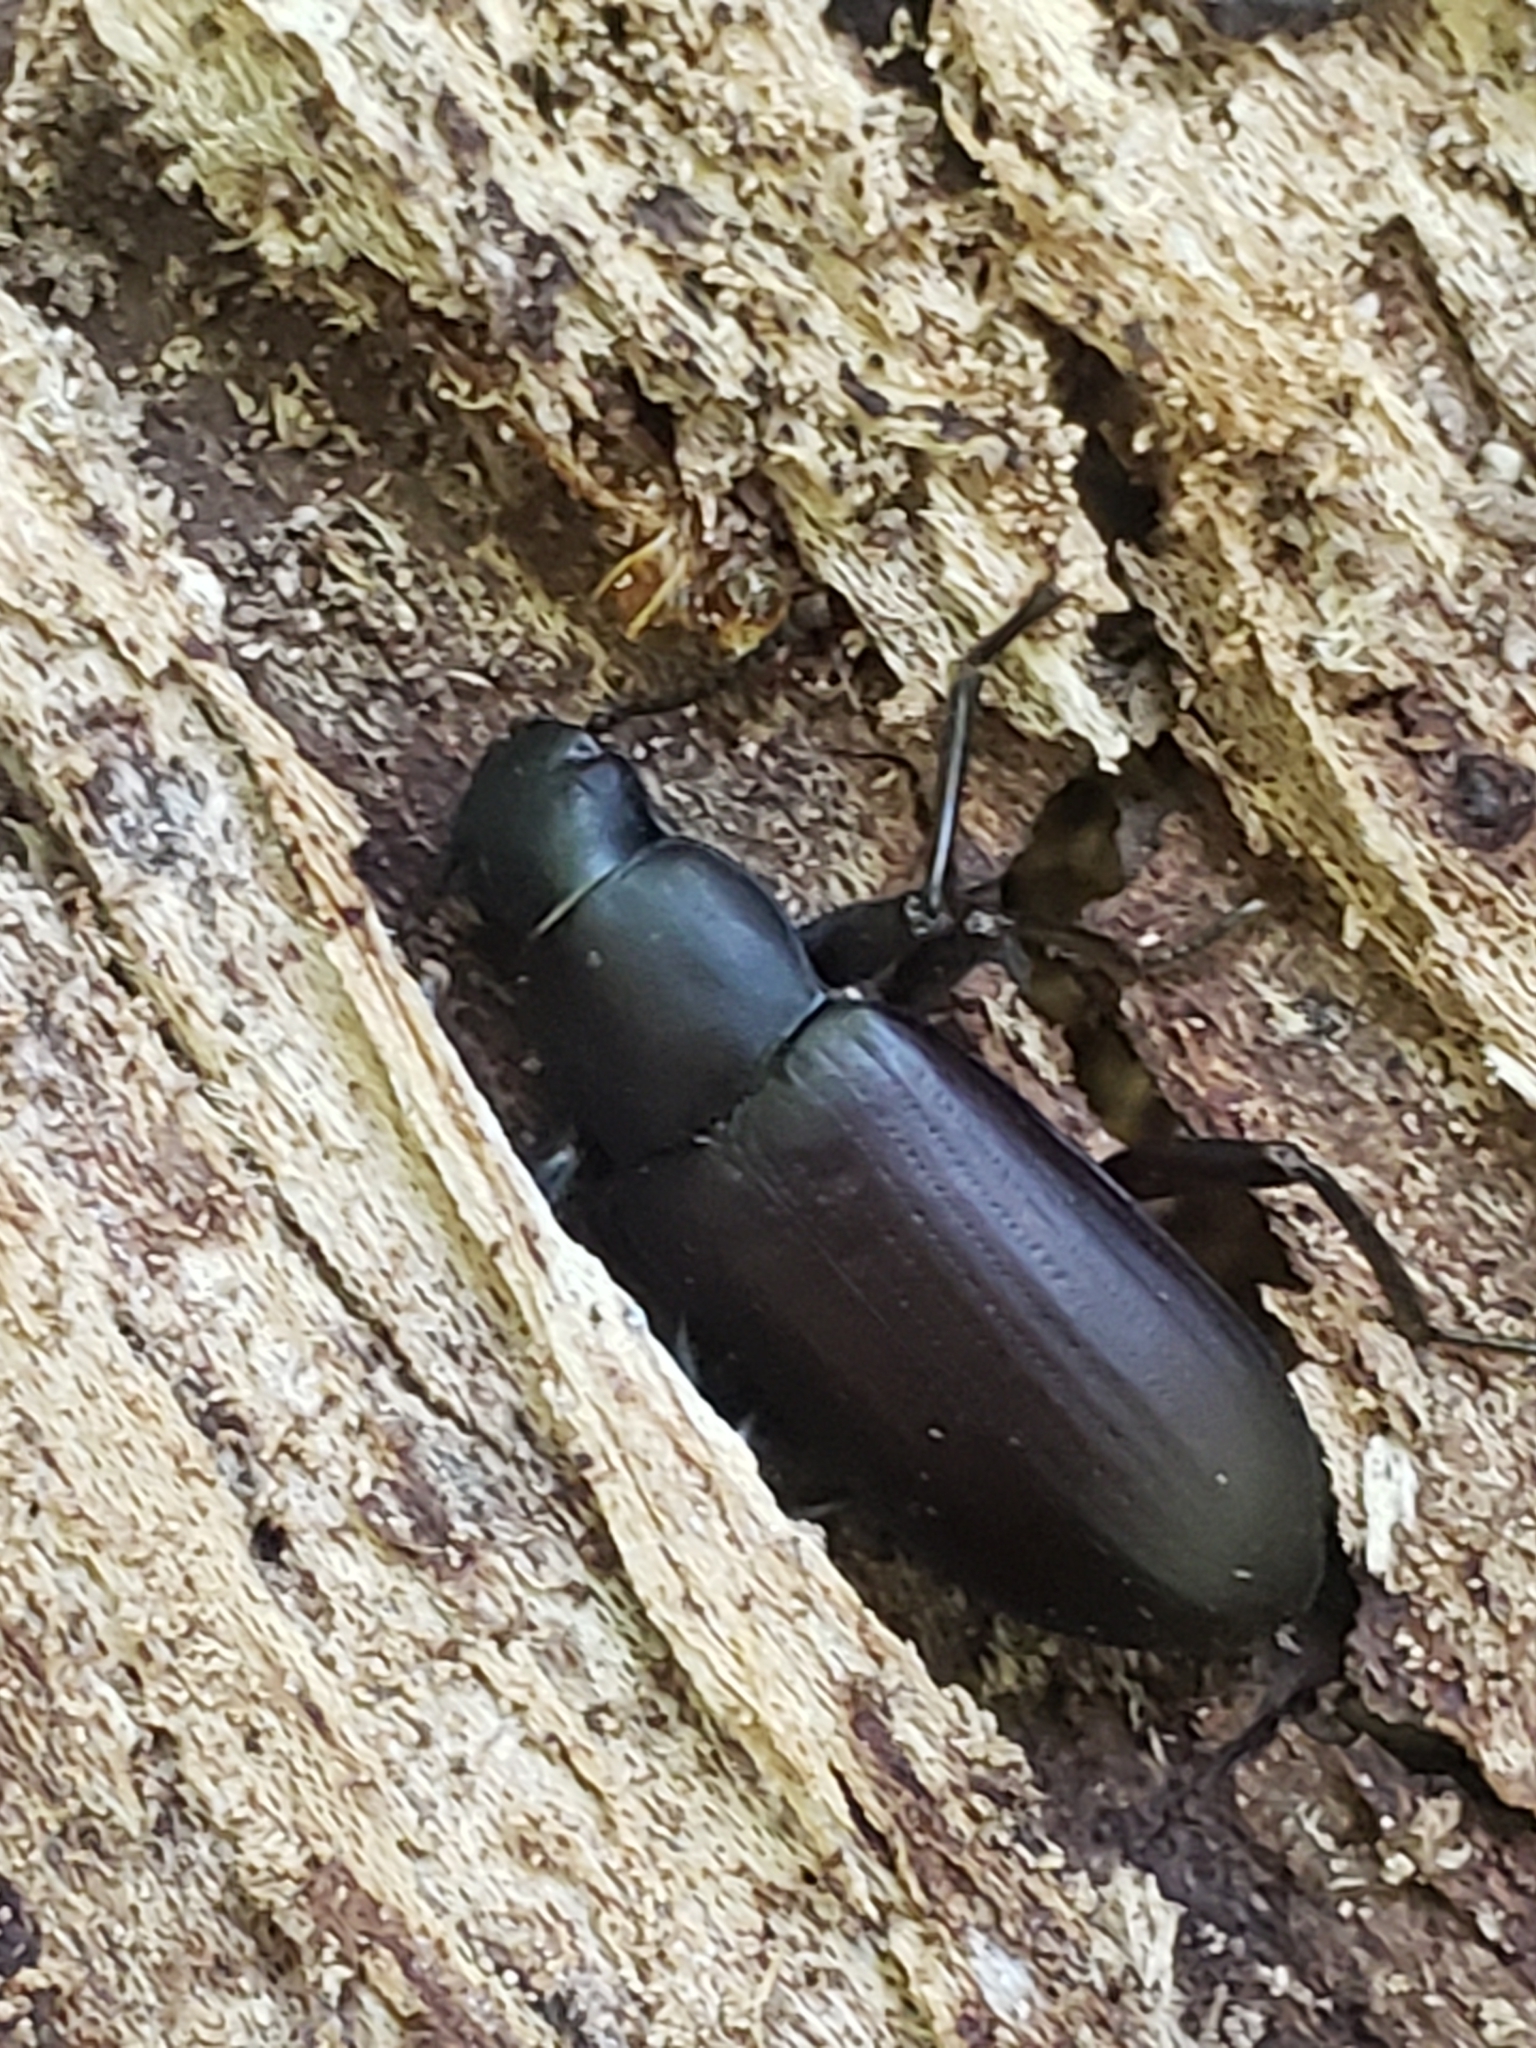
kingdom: Animalia
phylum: Arthropoda
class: Insecta
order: Coleoptera
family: Tenebrionidae
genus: Alobates
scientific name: Alobates
